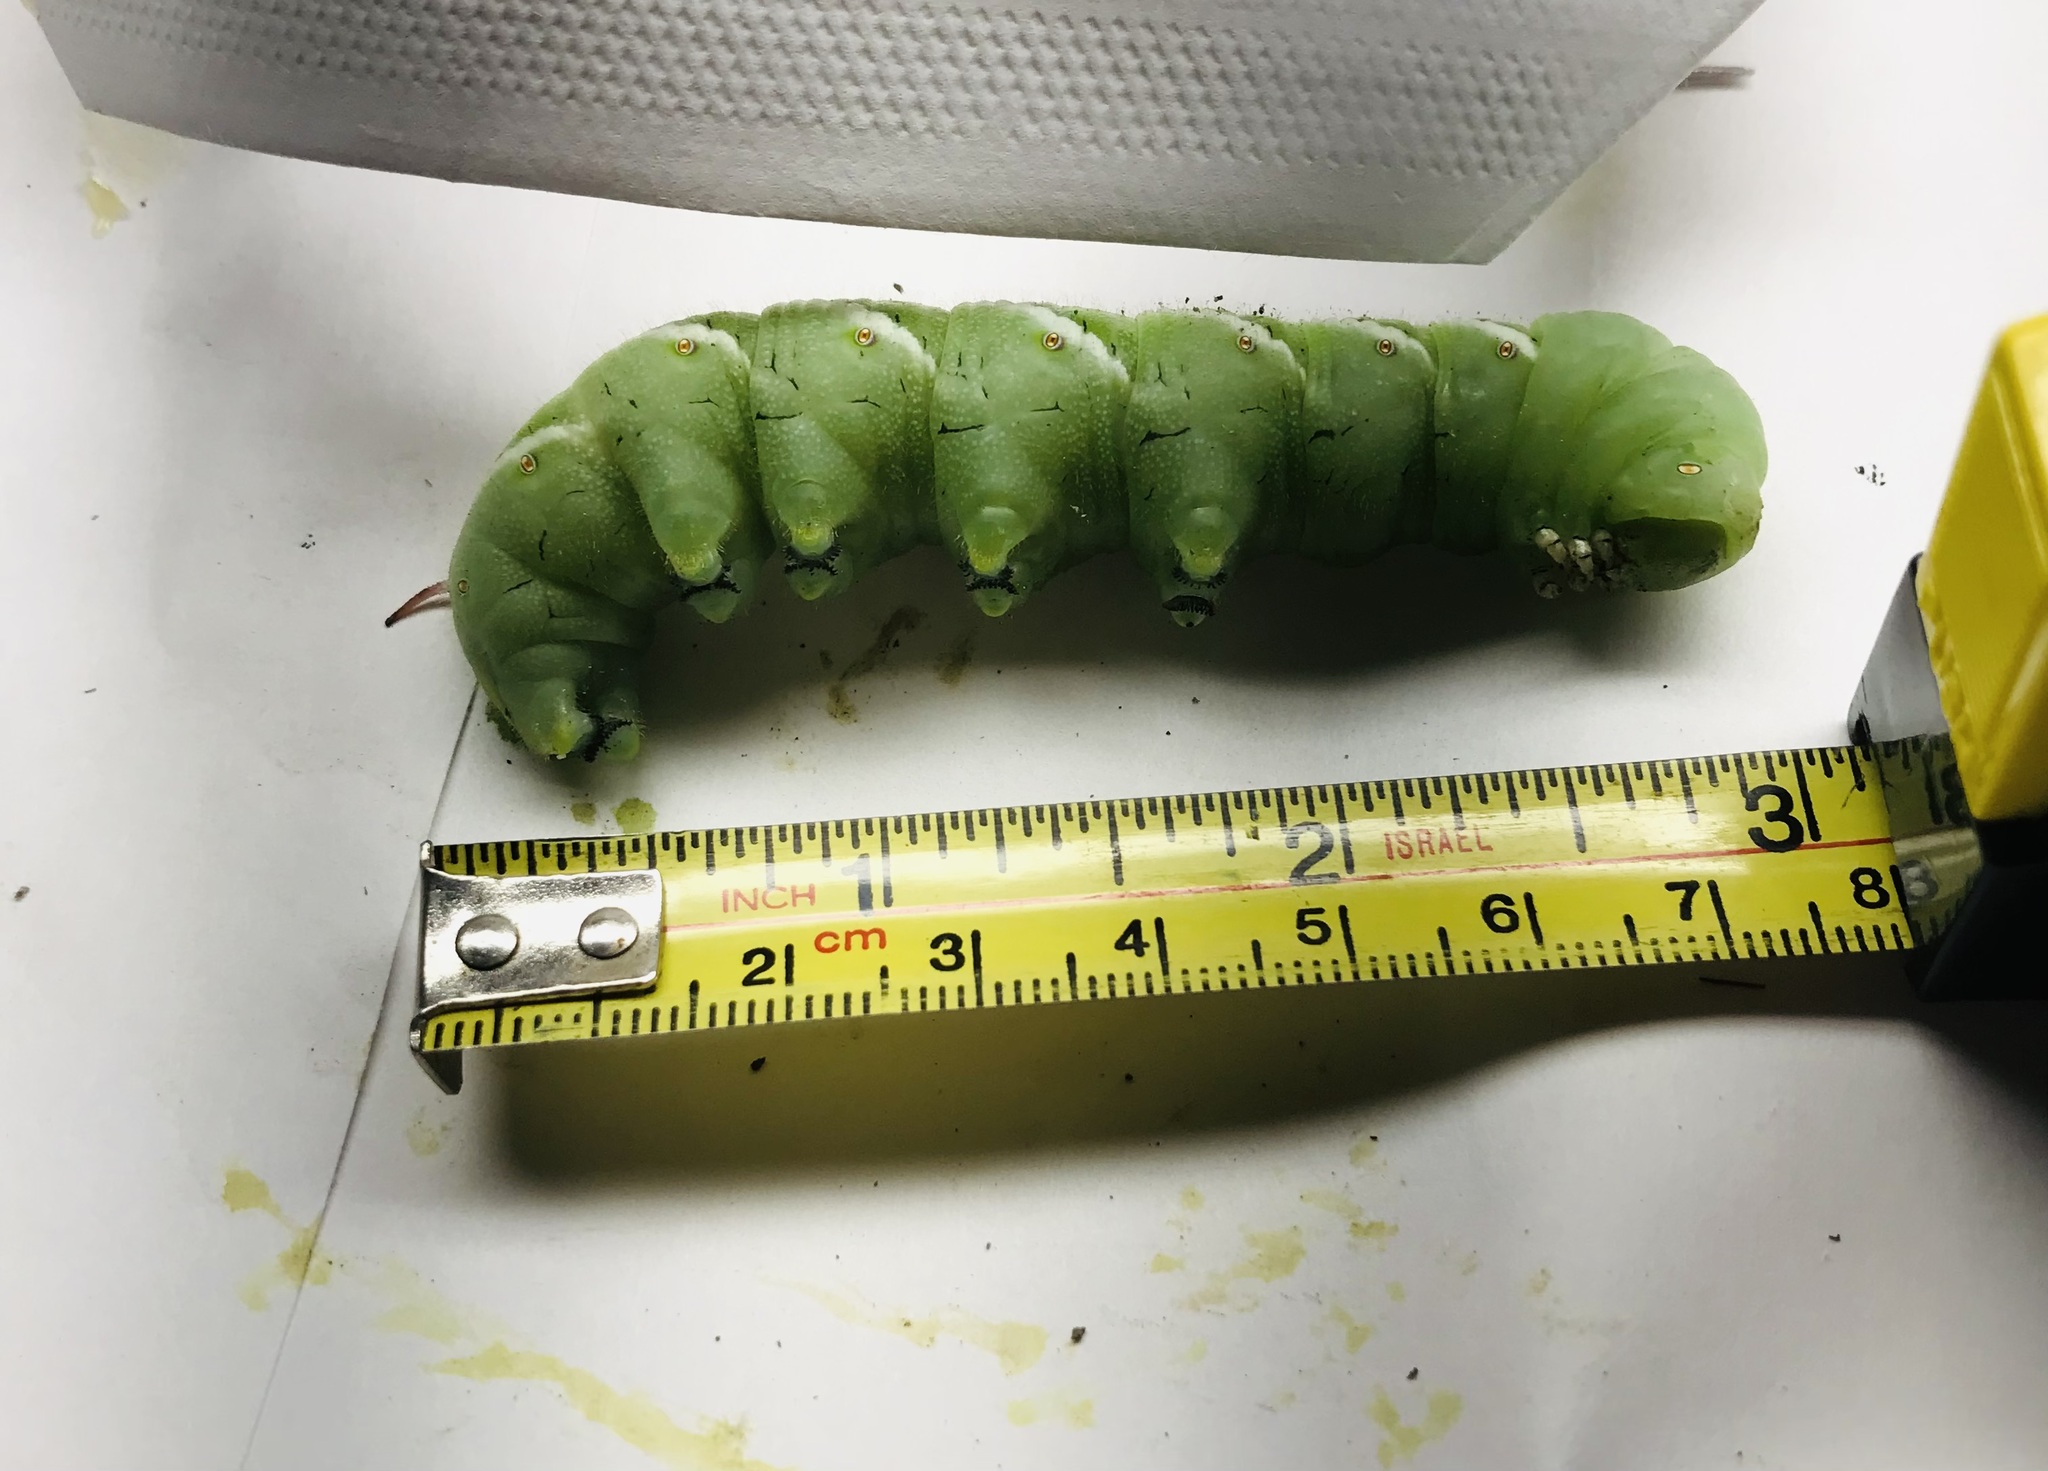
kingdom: Animalia
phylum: Arthropoda
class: Insecta
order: Lepidoptera
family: Sphingidae
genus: Manduca
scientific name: Manduca sexta
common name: Carolina sphinx
